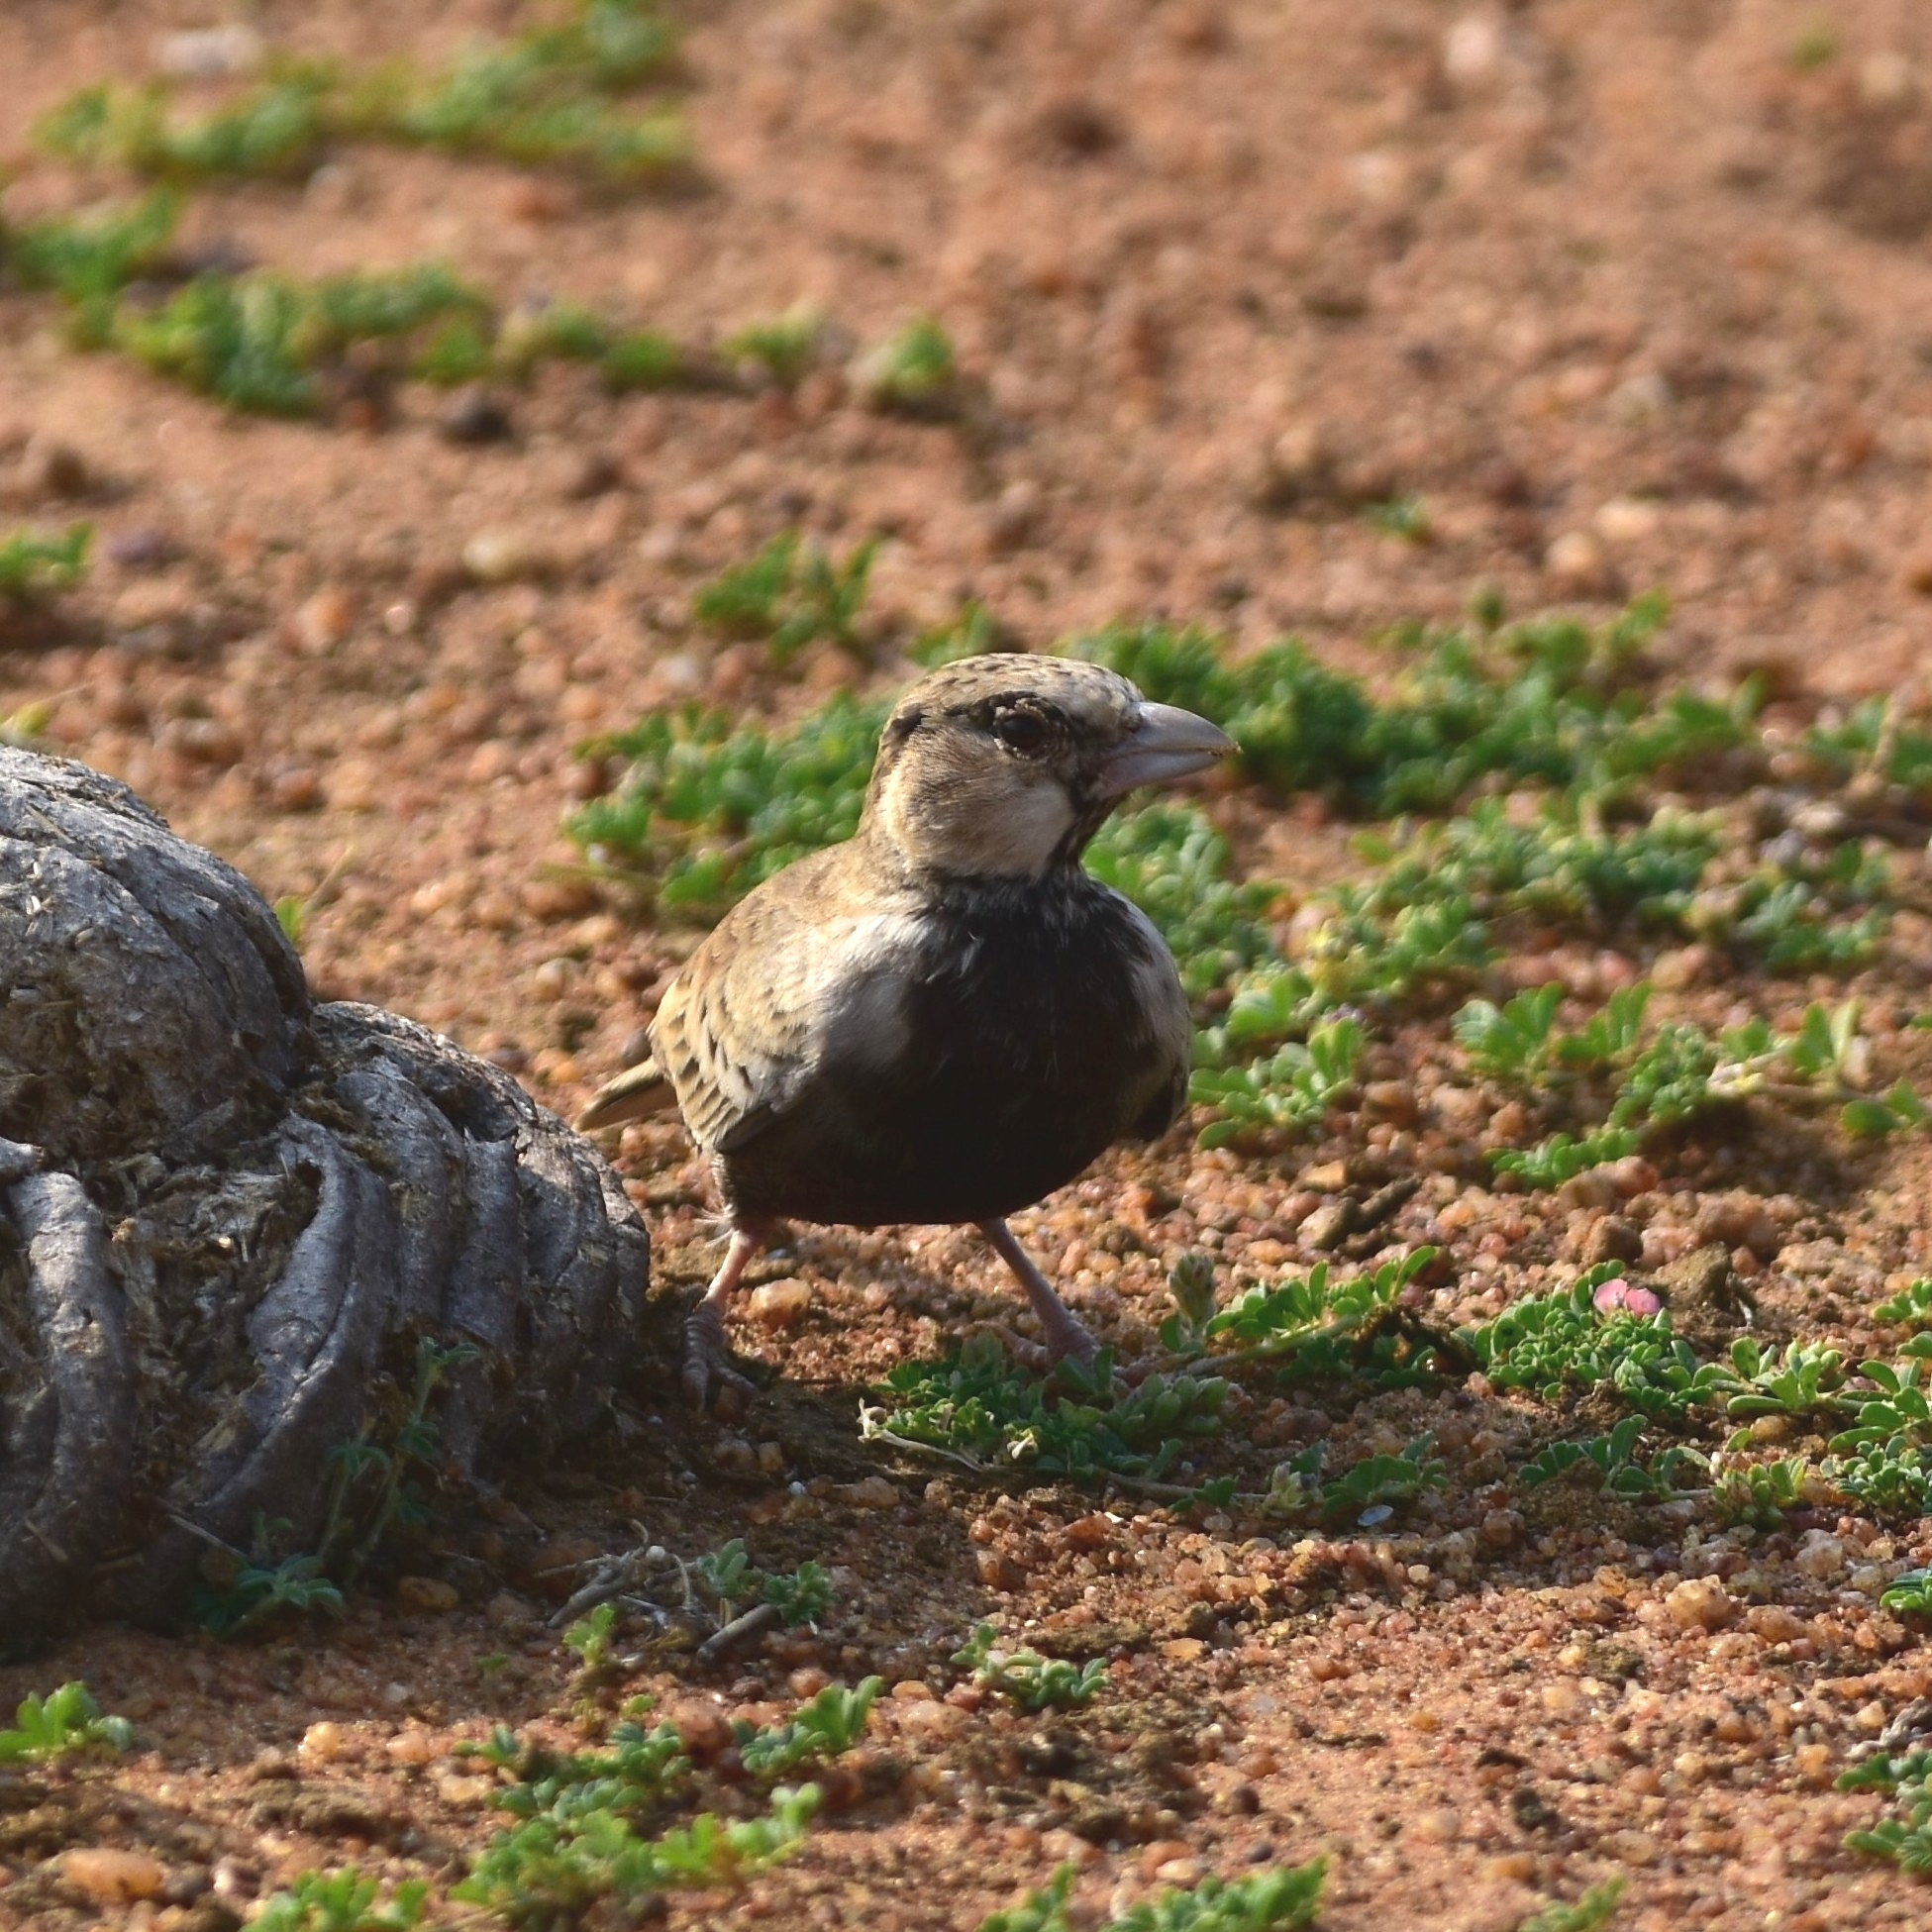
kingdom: Animalia
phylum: Chordata
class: Aves
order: Passeriformes
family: Alaudidae
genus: Eremopterix
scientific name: Eremopterix griseus
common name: Ashy-crowned sparrow-lark
